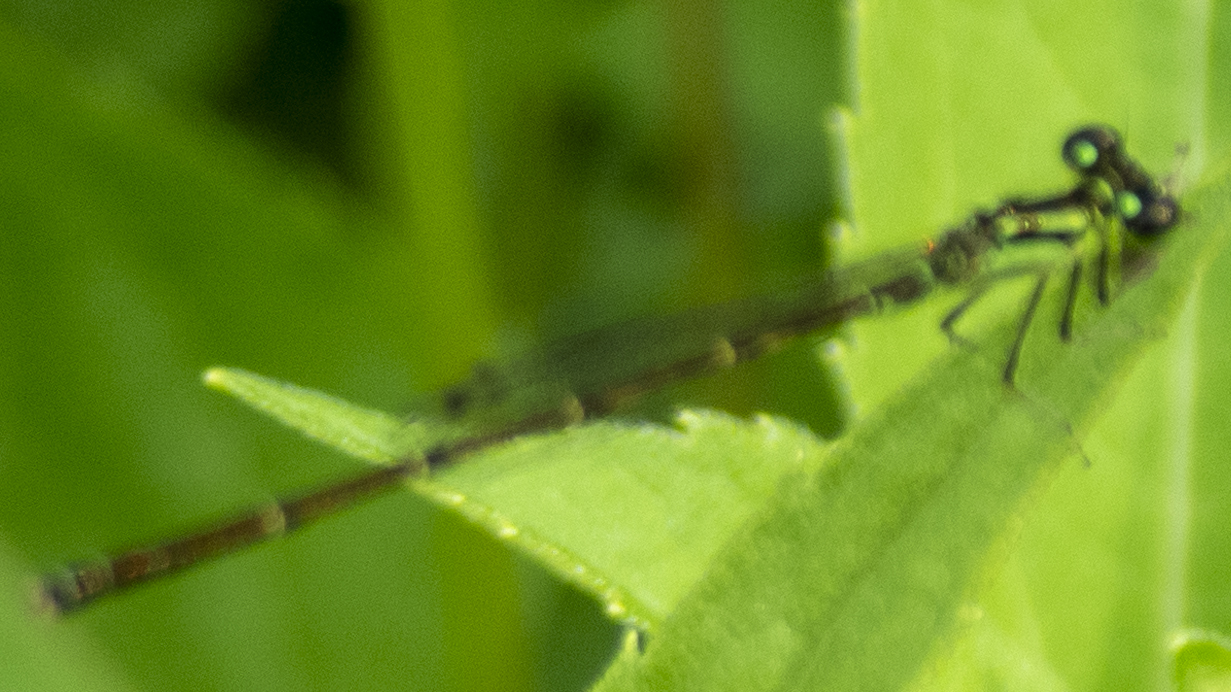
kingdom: Animalia
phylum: Arthropoda
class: Insecta
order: Odonata
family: Coenagrionidae
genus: Ischnura
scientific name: Ischnura posita
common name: Fragile forktail
